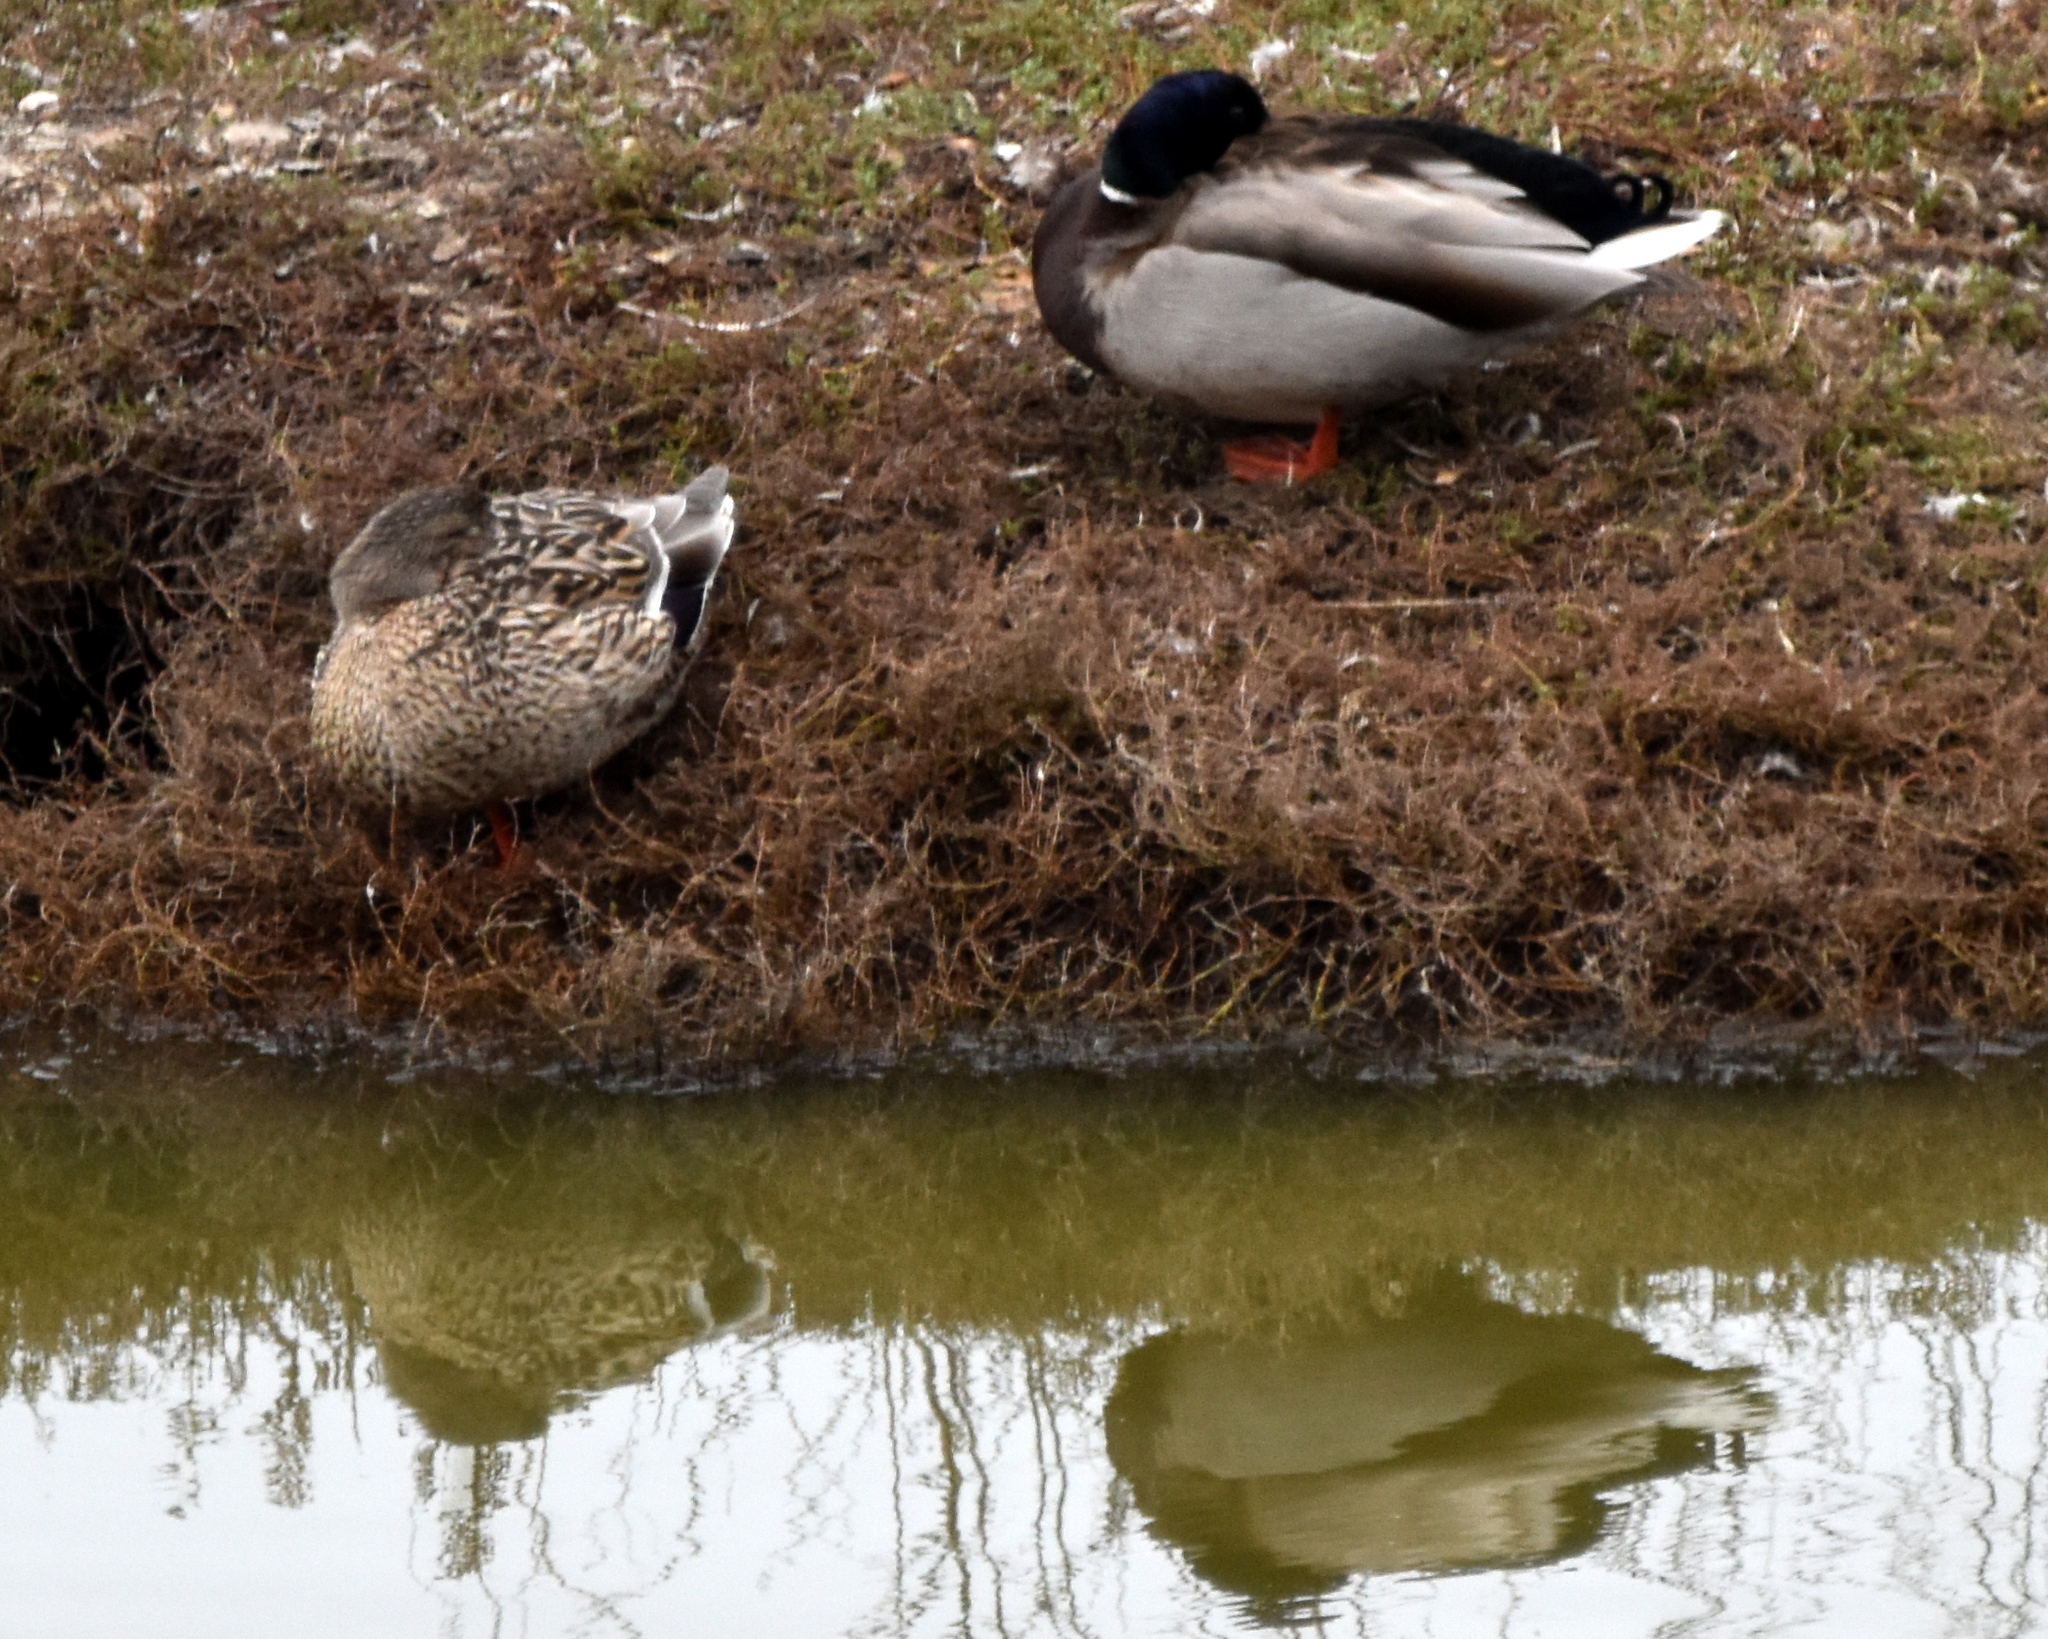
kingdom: Animalia
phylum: Chordata
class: Aves
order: Anseriformes
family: Anatidae
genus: Anas
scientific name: Anas platyrhynchos
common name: Mallard
